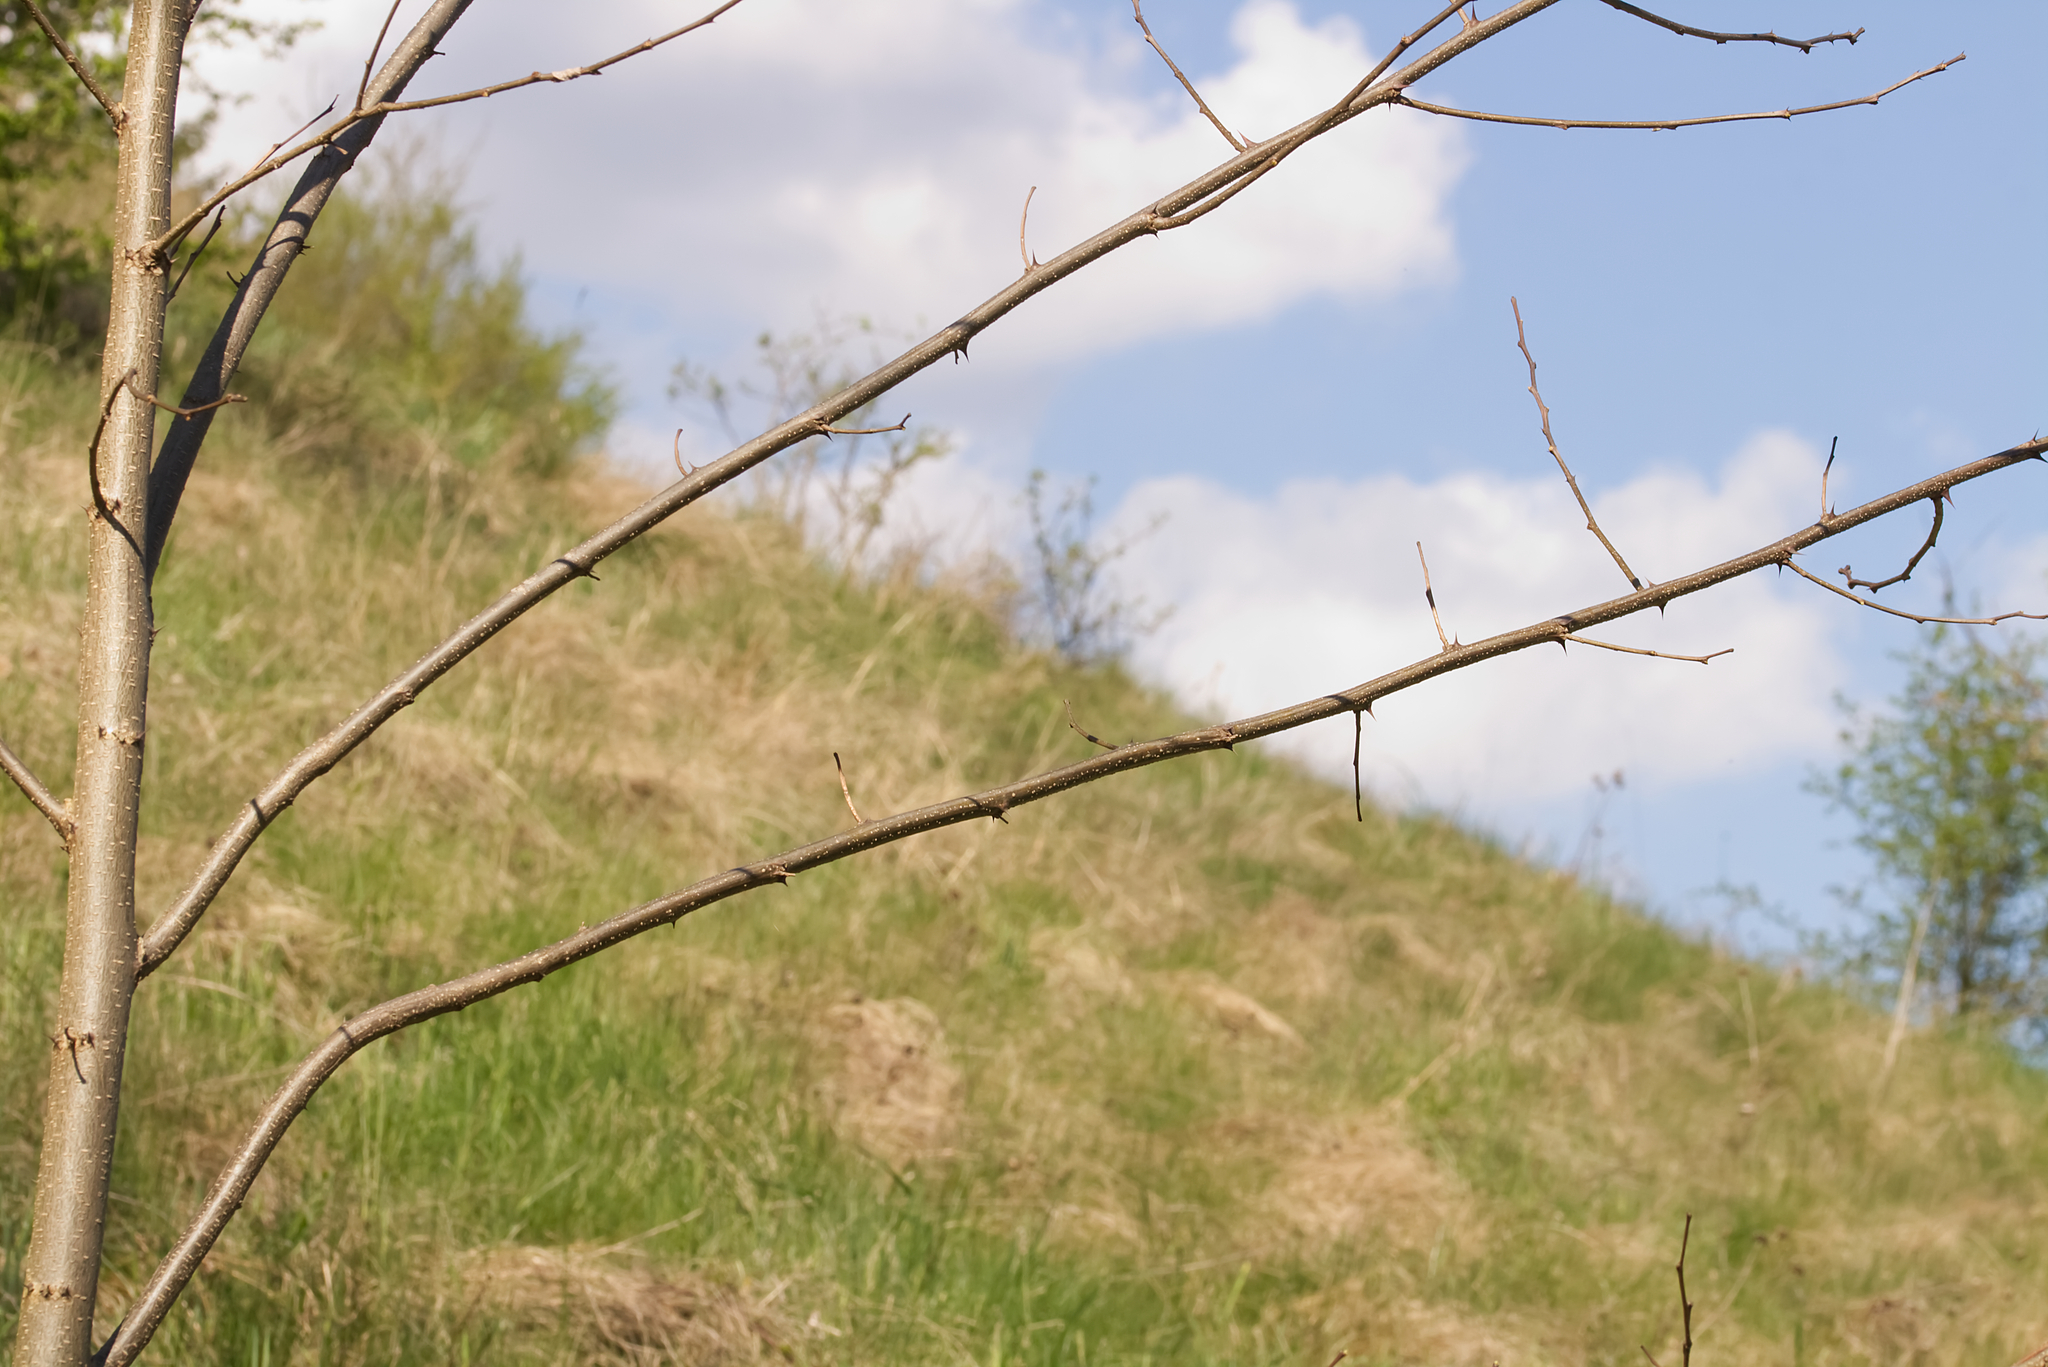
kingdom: Plantae
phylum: Tracheophyta
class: Magnoliopsida
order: Fabales
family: Fabaceae
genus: Robinia
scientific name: Robinia pseudoacacia
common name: Black locust
